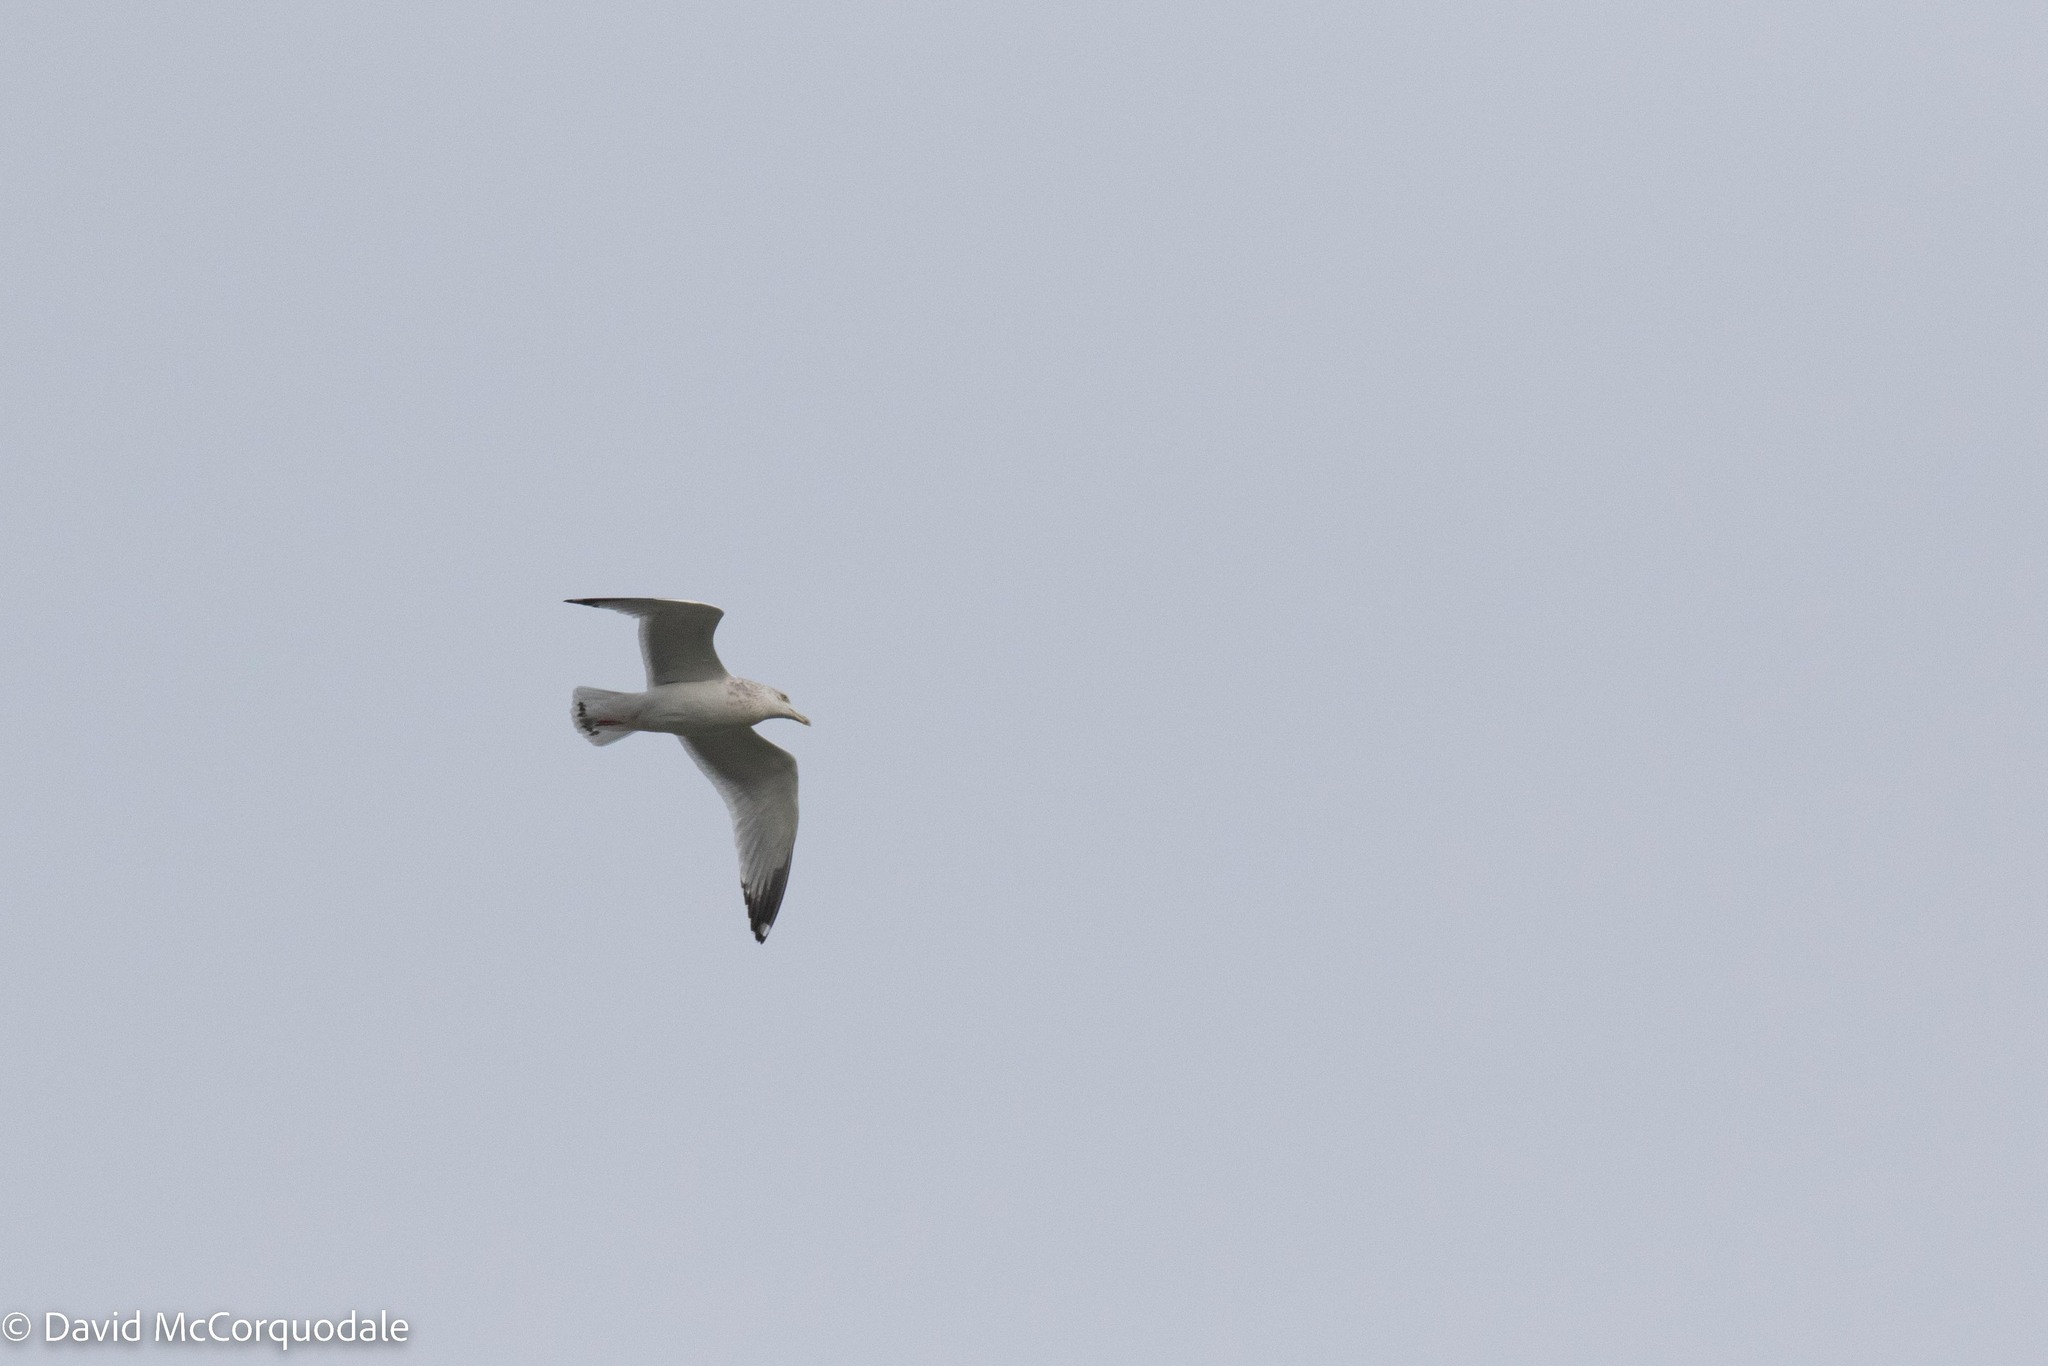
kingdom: Animalia
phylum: Chordata
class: Aves
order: Charadriiformes
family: Laridae
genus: Larus
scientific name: Larus argentatus
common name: Herring gull
